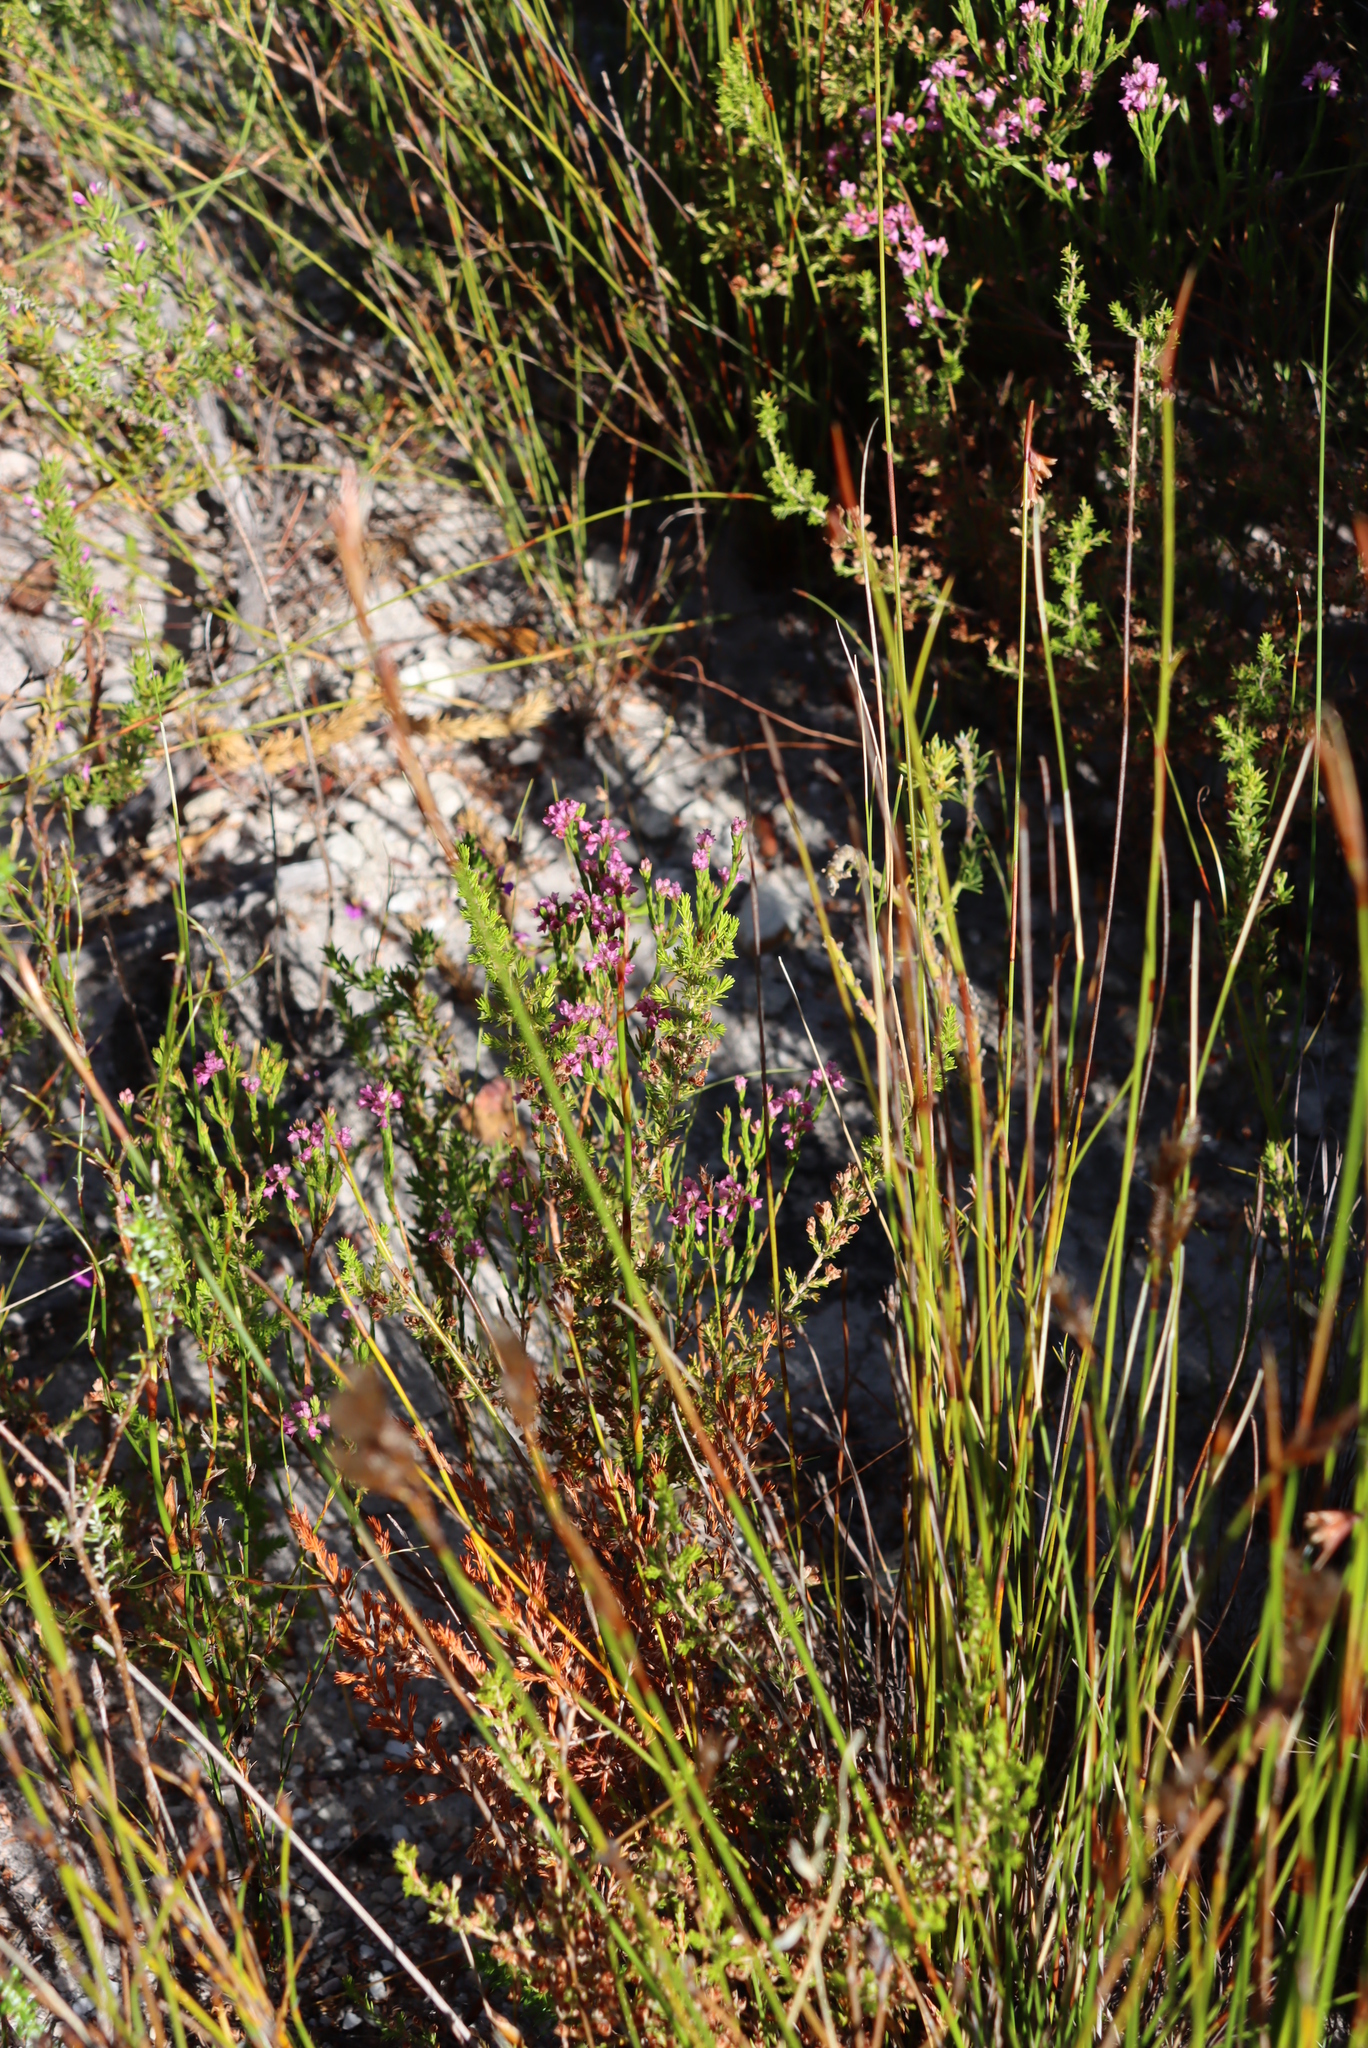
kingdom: Plantae
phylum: Tracheophyta
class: Magnoliopsida
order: Ericales
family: Ericaceae
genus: Erica
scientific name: Erica corifolia
